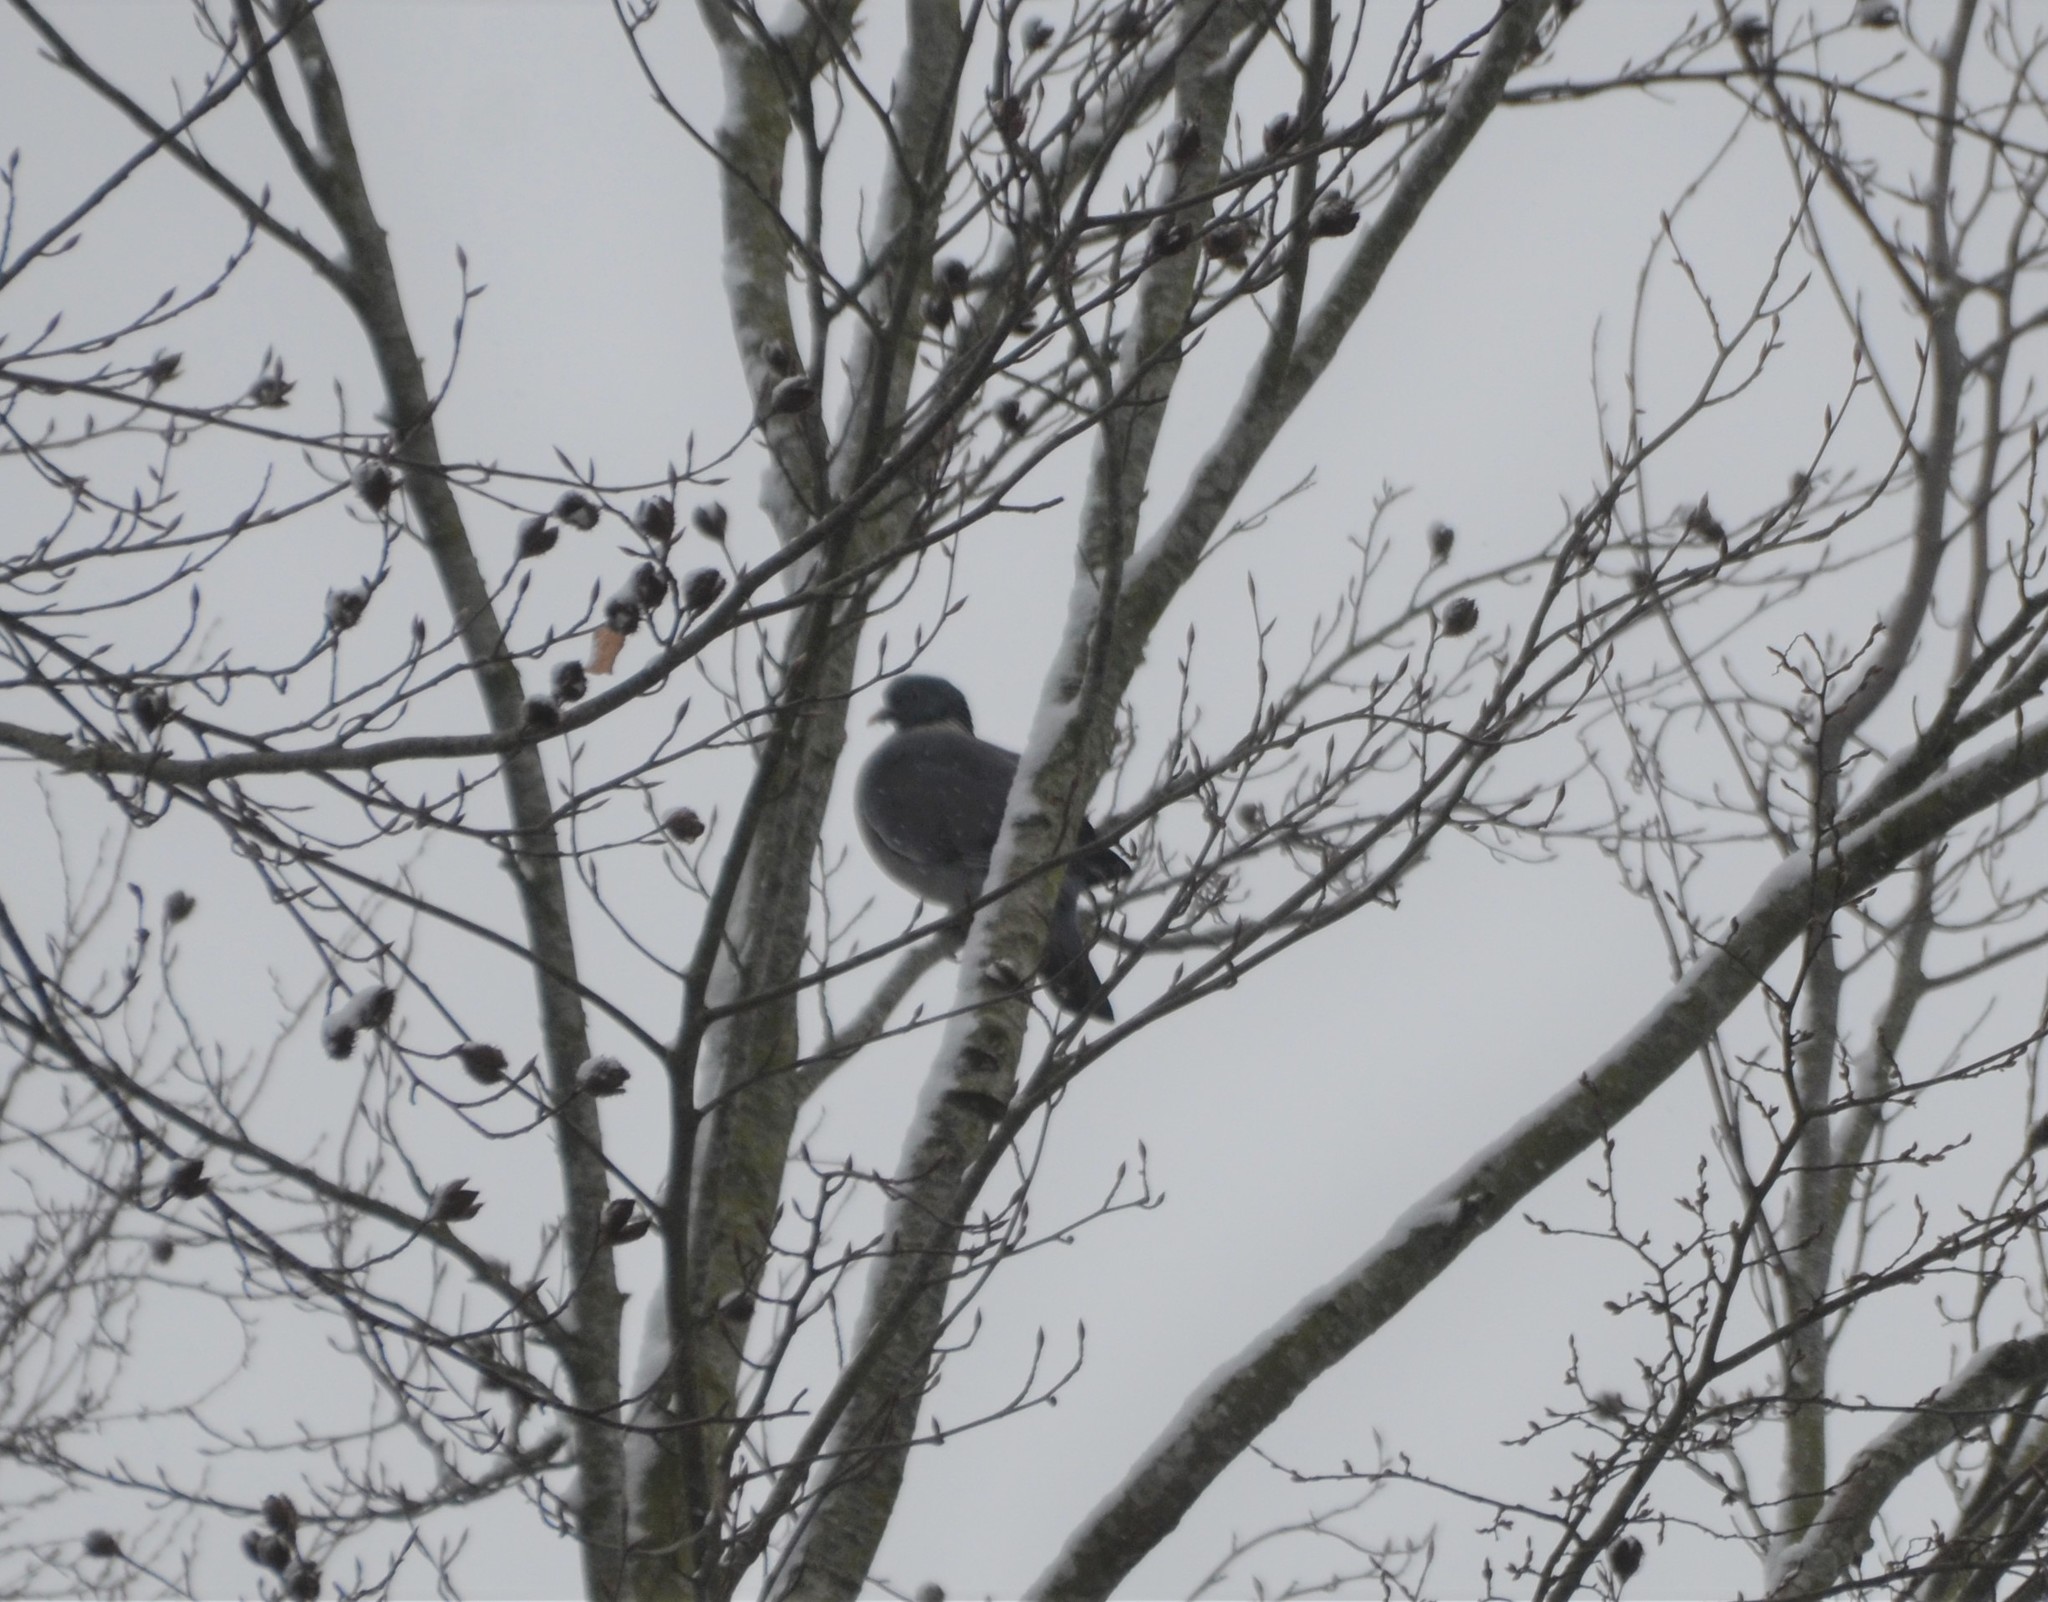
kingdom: Animalia
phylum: Chordata
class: Aves
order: Columbiformes
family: Columbidae
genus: Columba
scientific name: Columba palumbus
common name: Common wood pigeon
